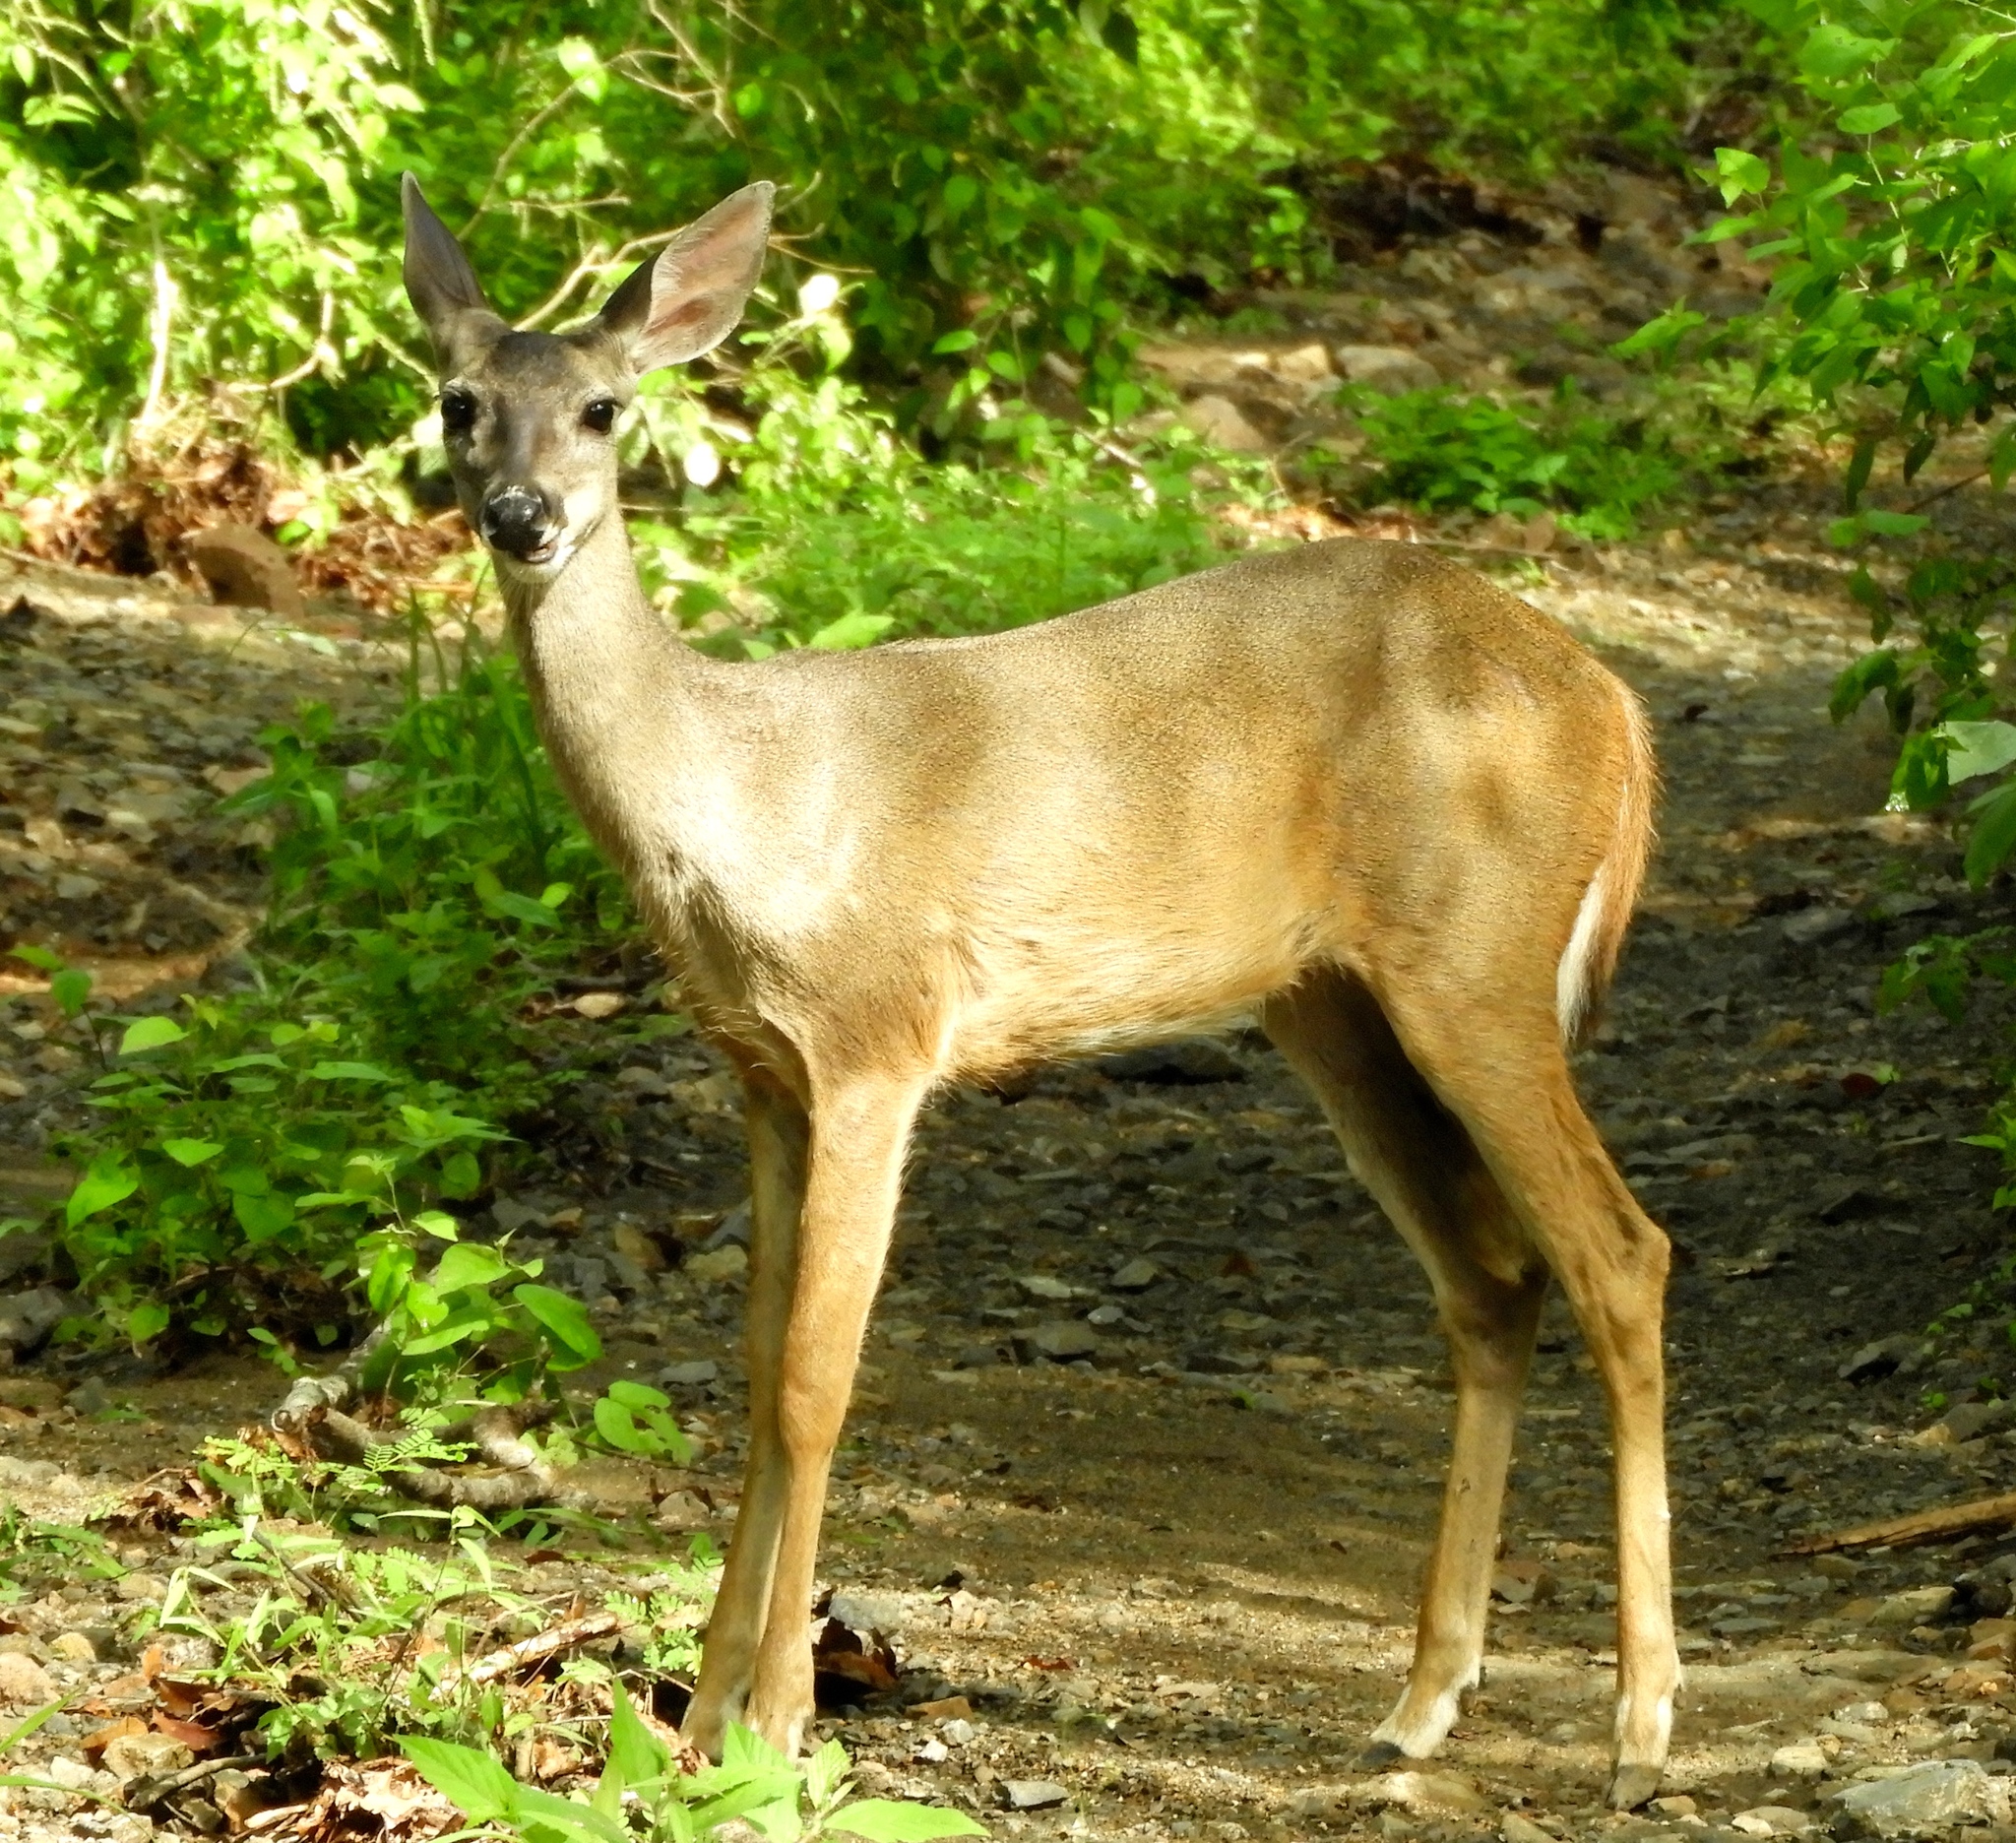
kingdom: Animalia
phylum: Chordata
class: Mammalia
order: Artiodactyla
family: Cervidae
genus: Odocoileus
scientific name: Odocoileus virginianus
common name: White-tailed deer
